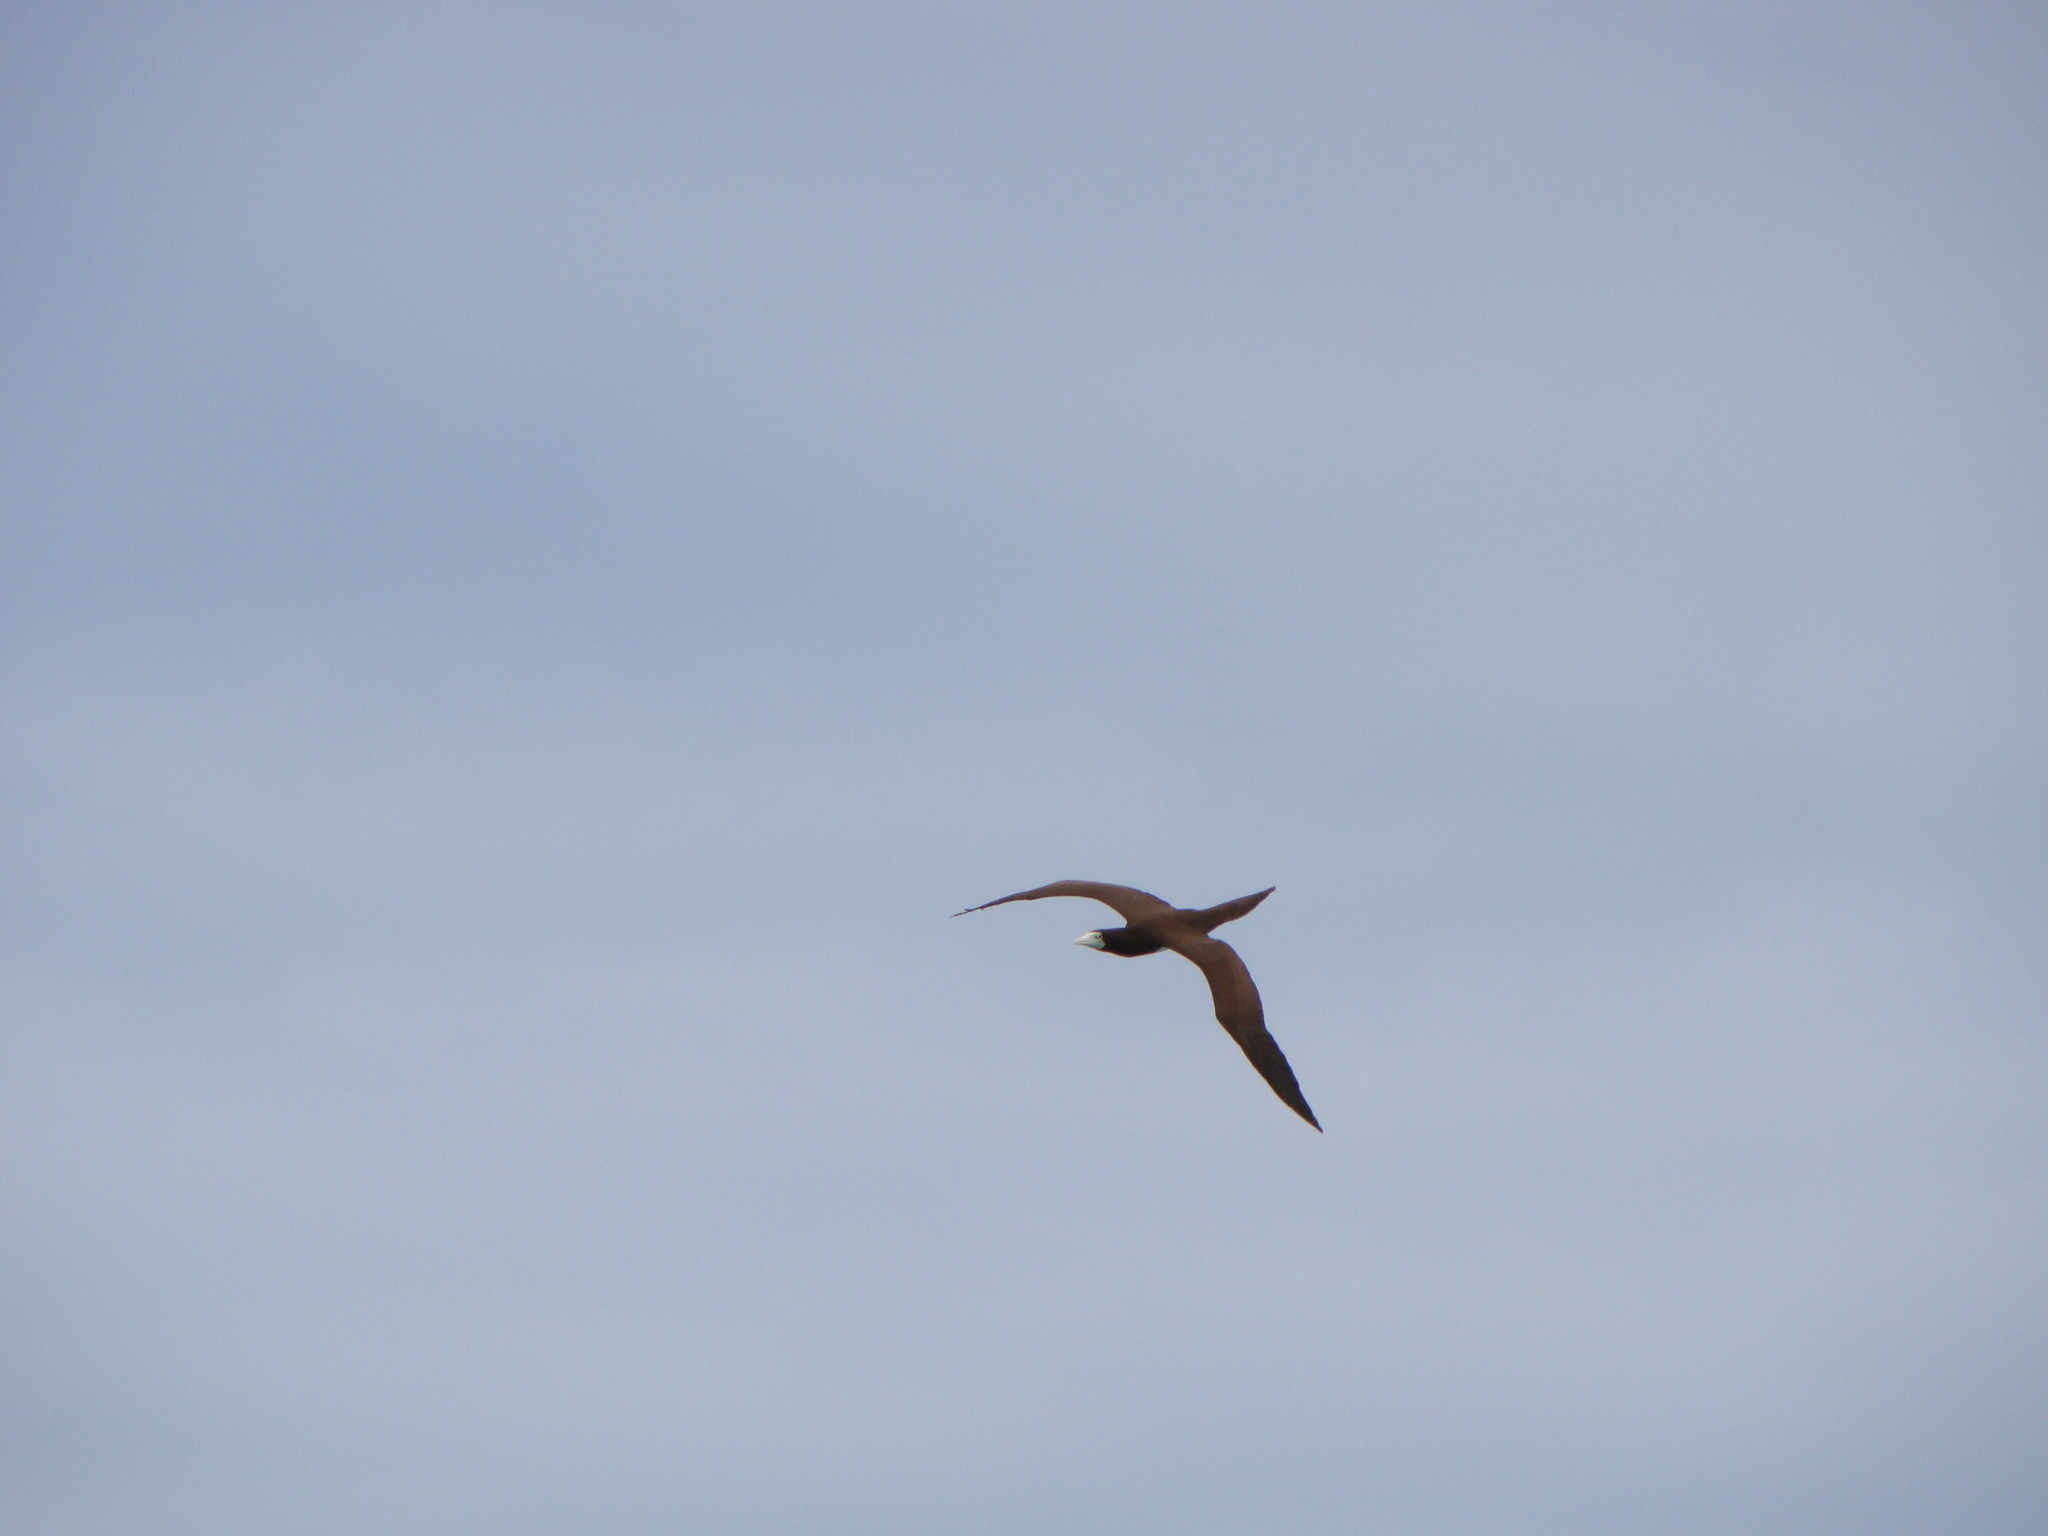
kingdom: Animalia
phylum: Chordata
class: Aves
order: Suliformes
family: Sulidae
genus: Sula
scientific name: Sula leucogaster
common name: Brown booby
